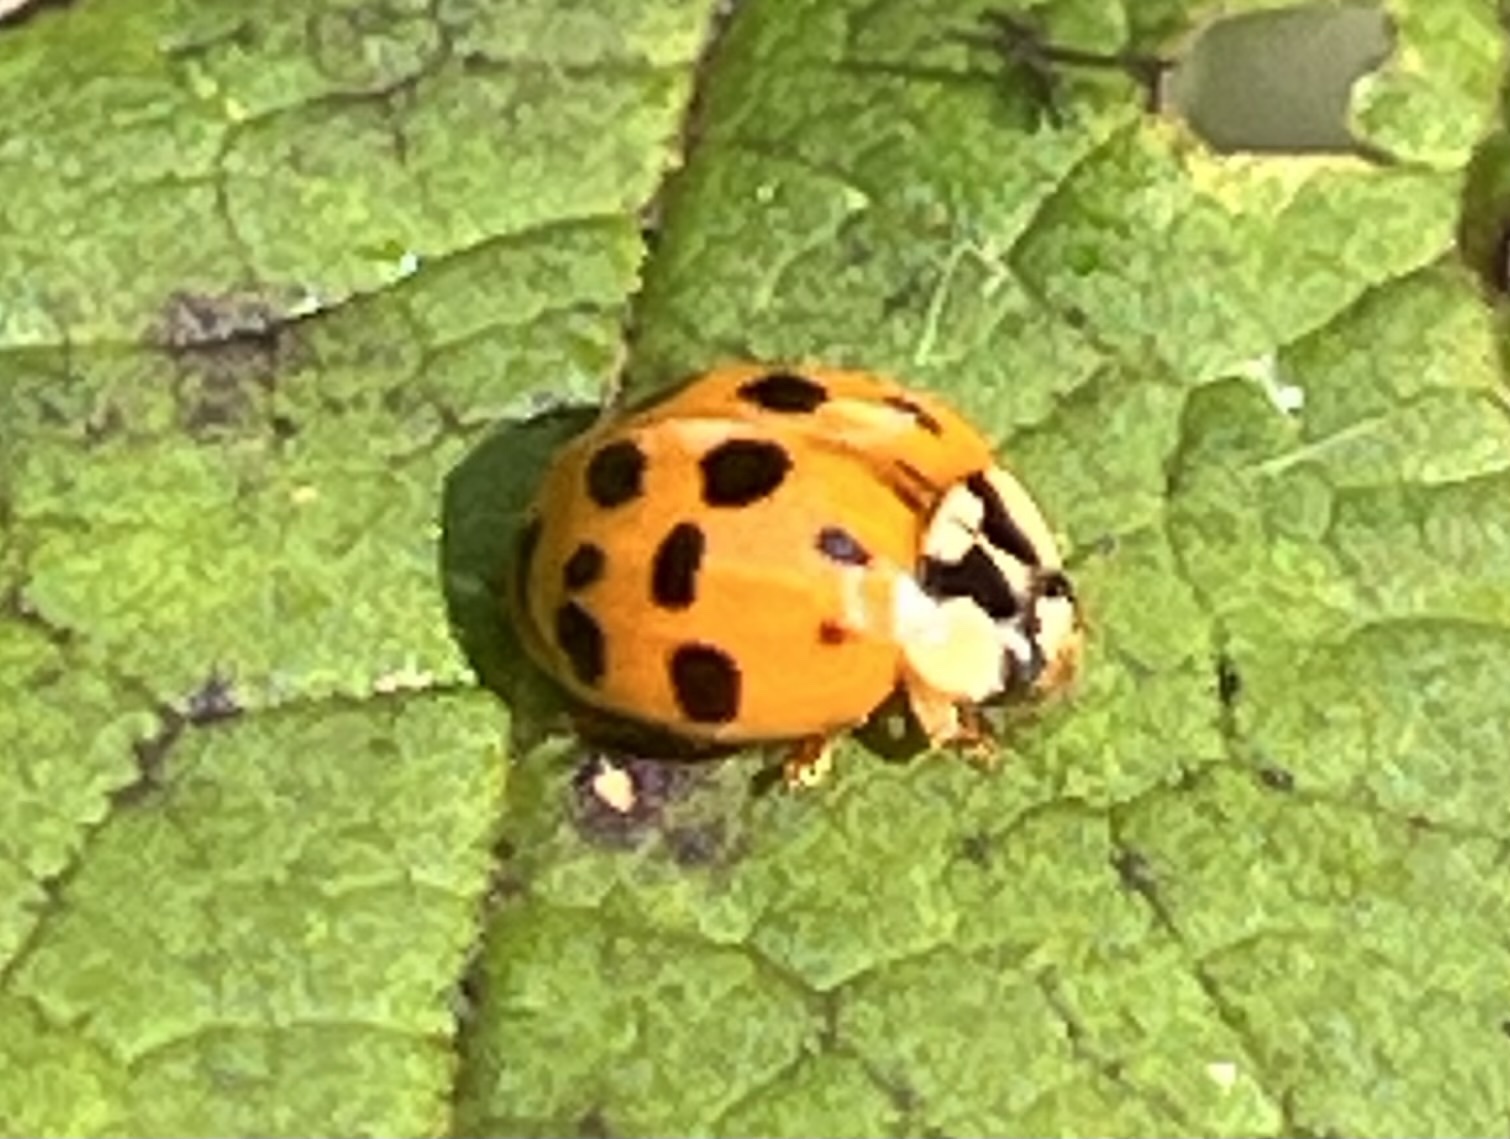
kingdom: Animalia
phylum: Arthropoda
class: Insecta
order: Coleoptera
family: Coccinellidae
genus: Harmonia
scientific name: Harmonia axyridis
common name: Harlequin ladybird
